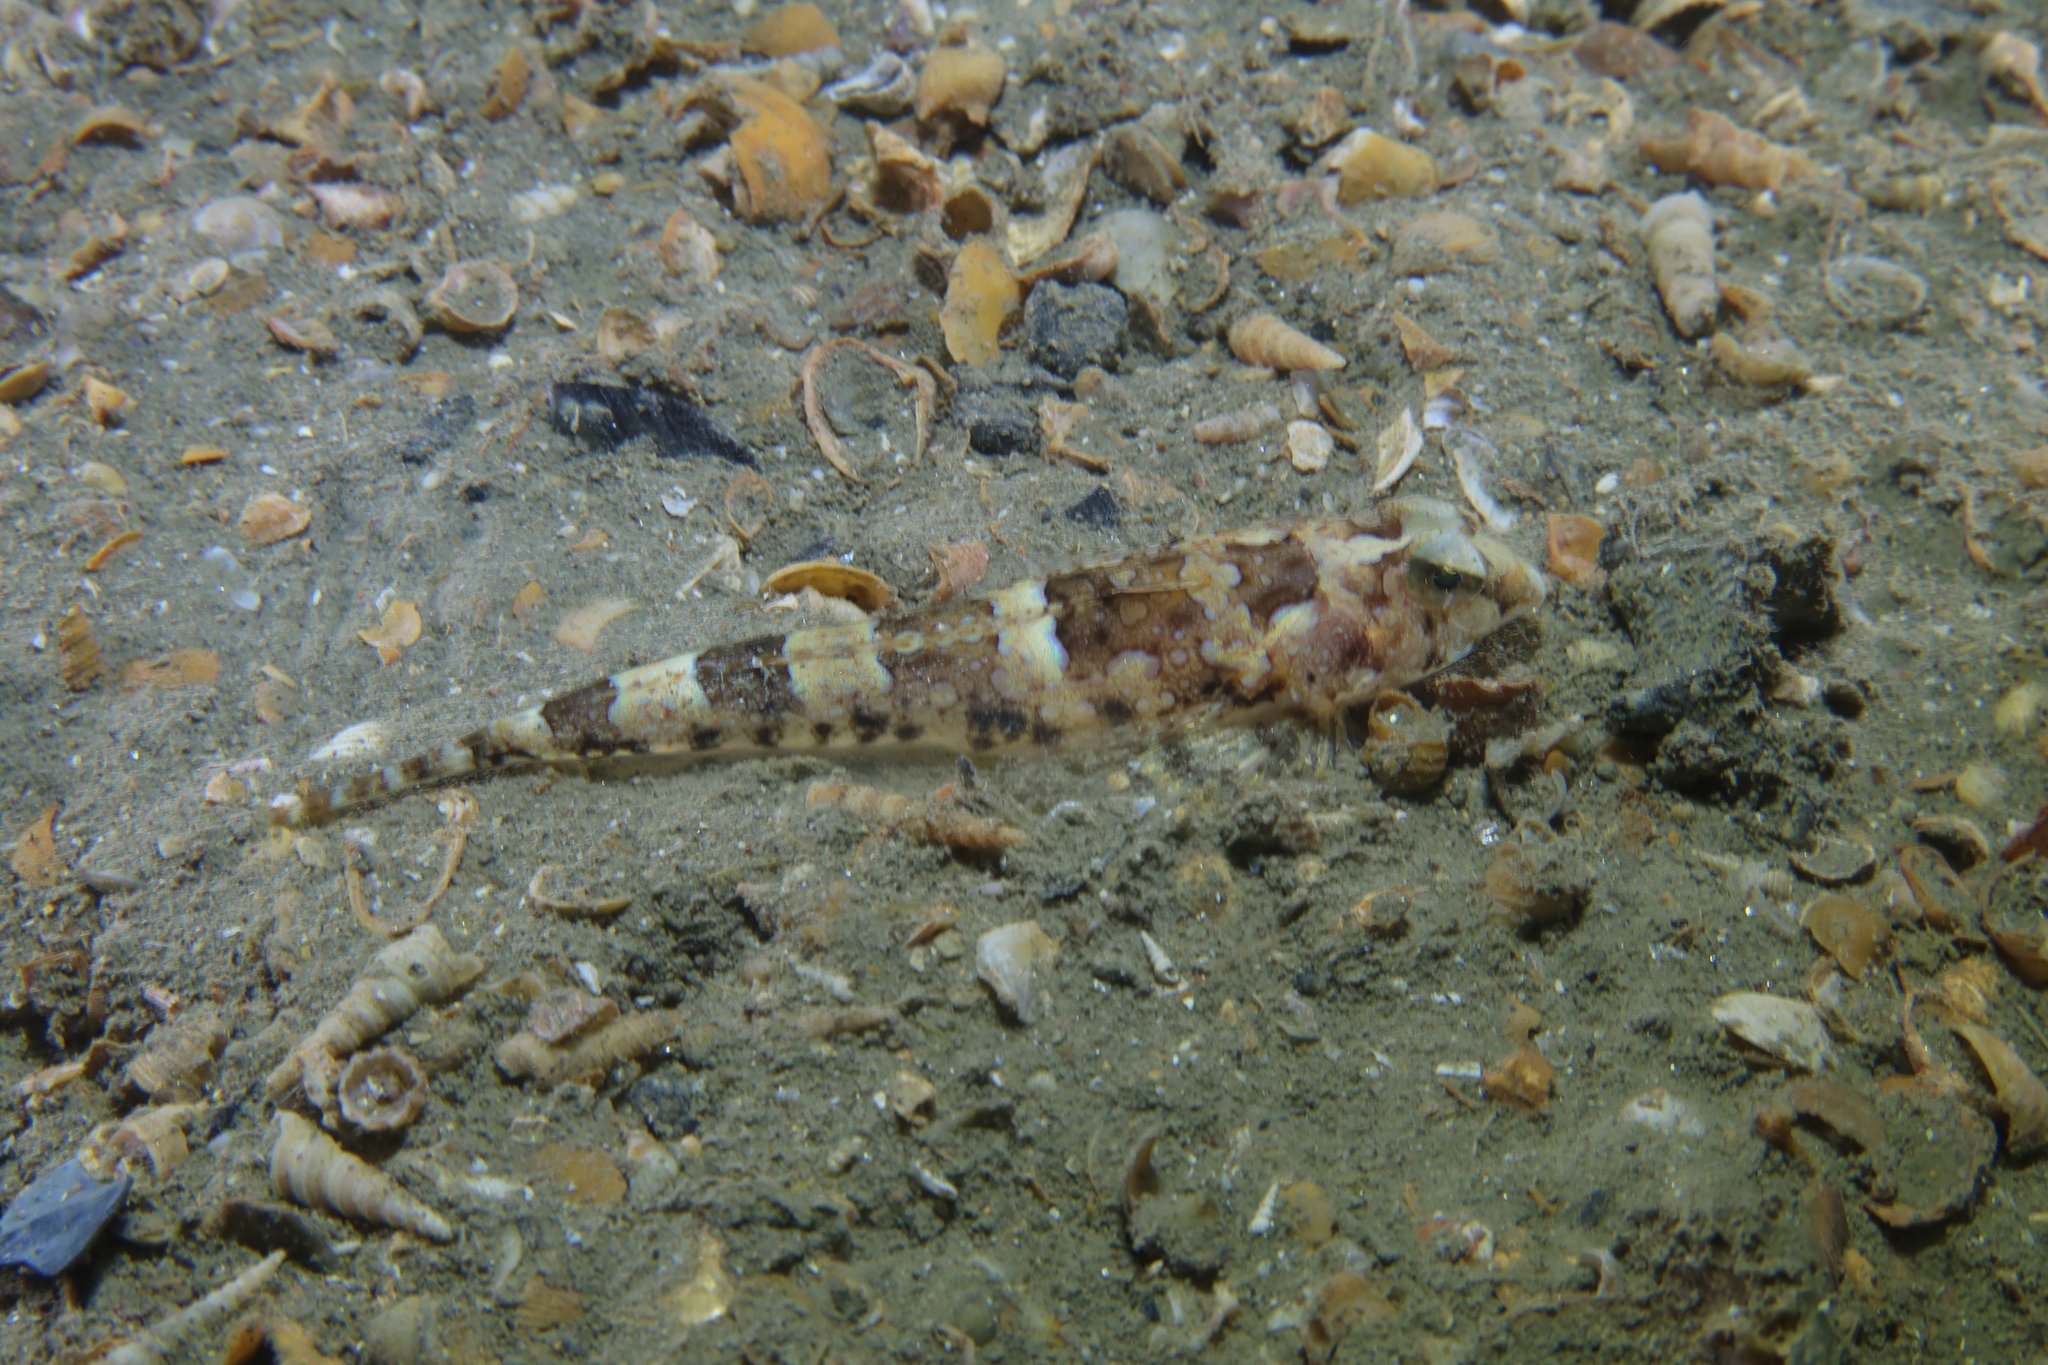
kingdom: Animalia
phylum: Chordata
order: Perciformes
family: Callionymidae
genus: Callionymus
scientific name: Callionymus reticulatus
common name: Reticulated dragonet
